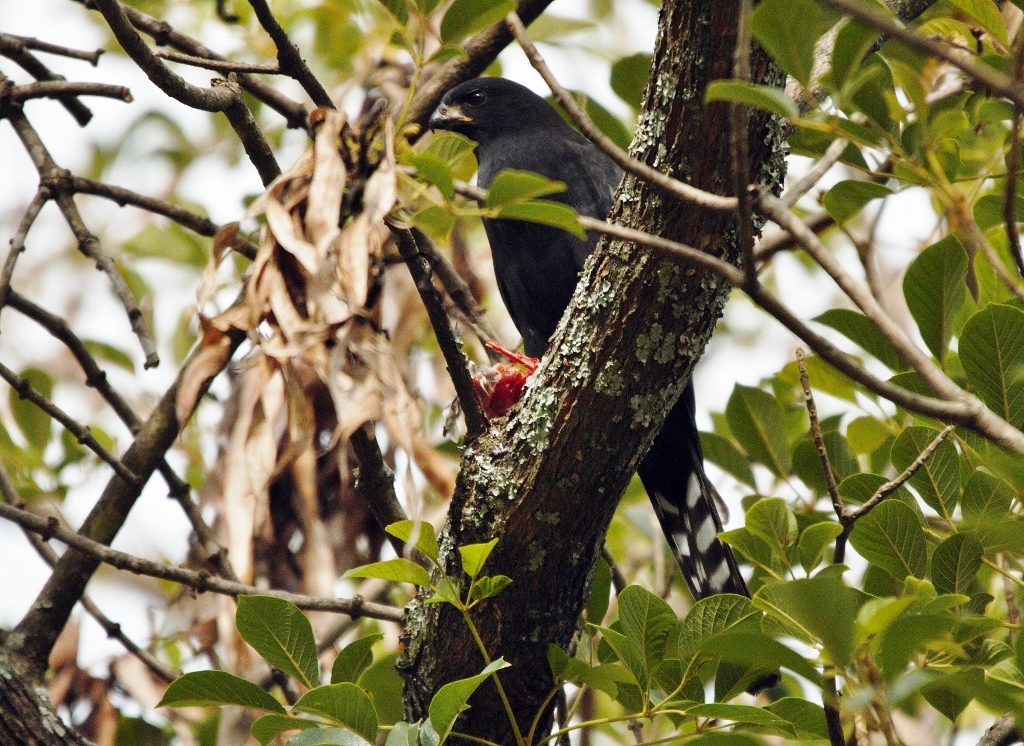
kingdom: Animalia
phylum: Chordata
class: Aves
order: Accipitriformes
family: Accipitridae
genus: Micronisus
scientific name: Micronisus gabar
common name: Gabar goshawk
